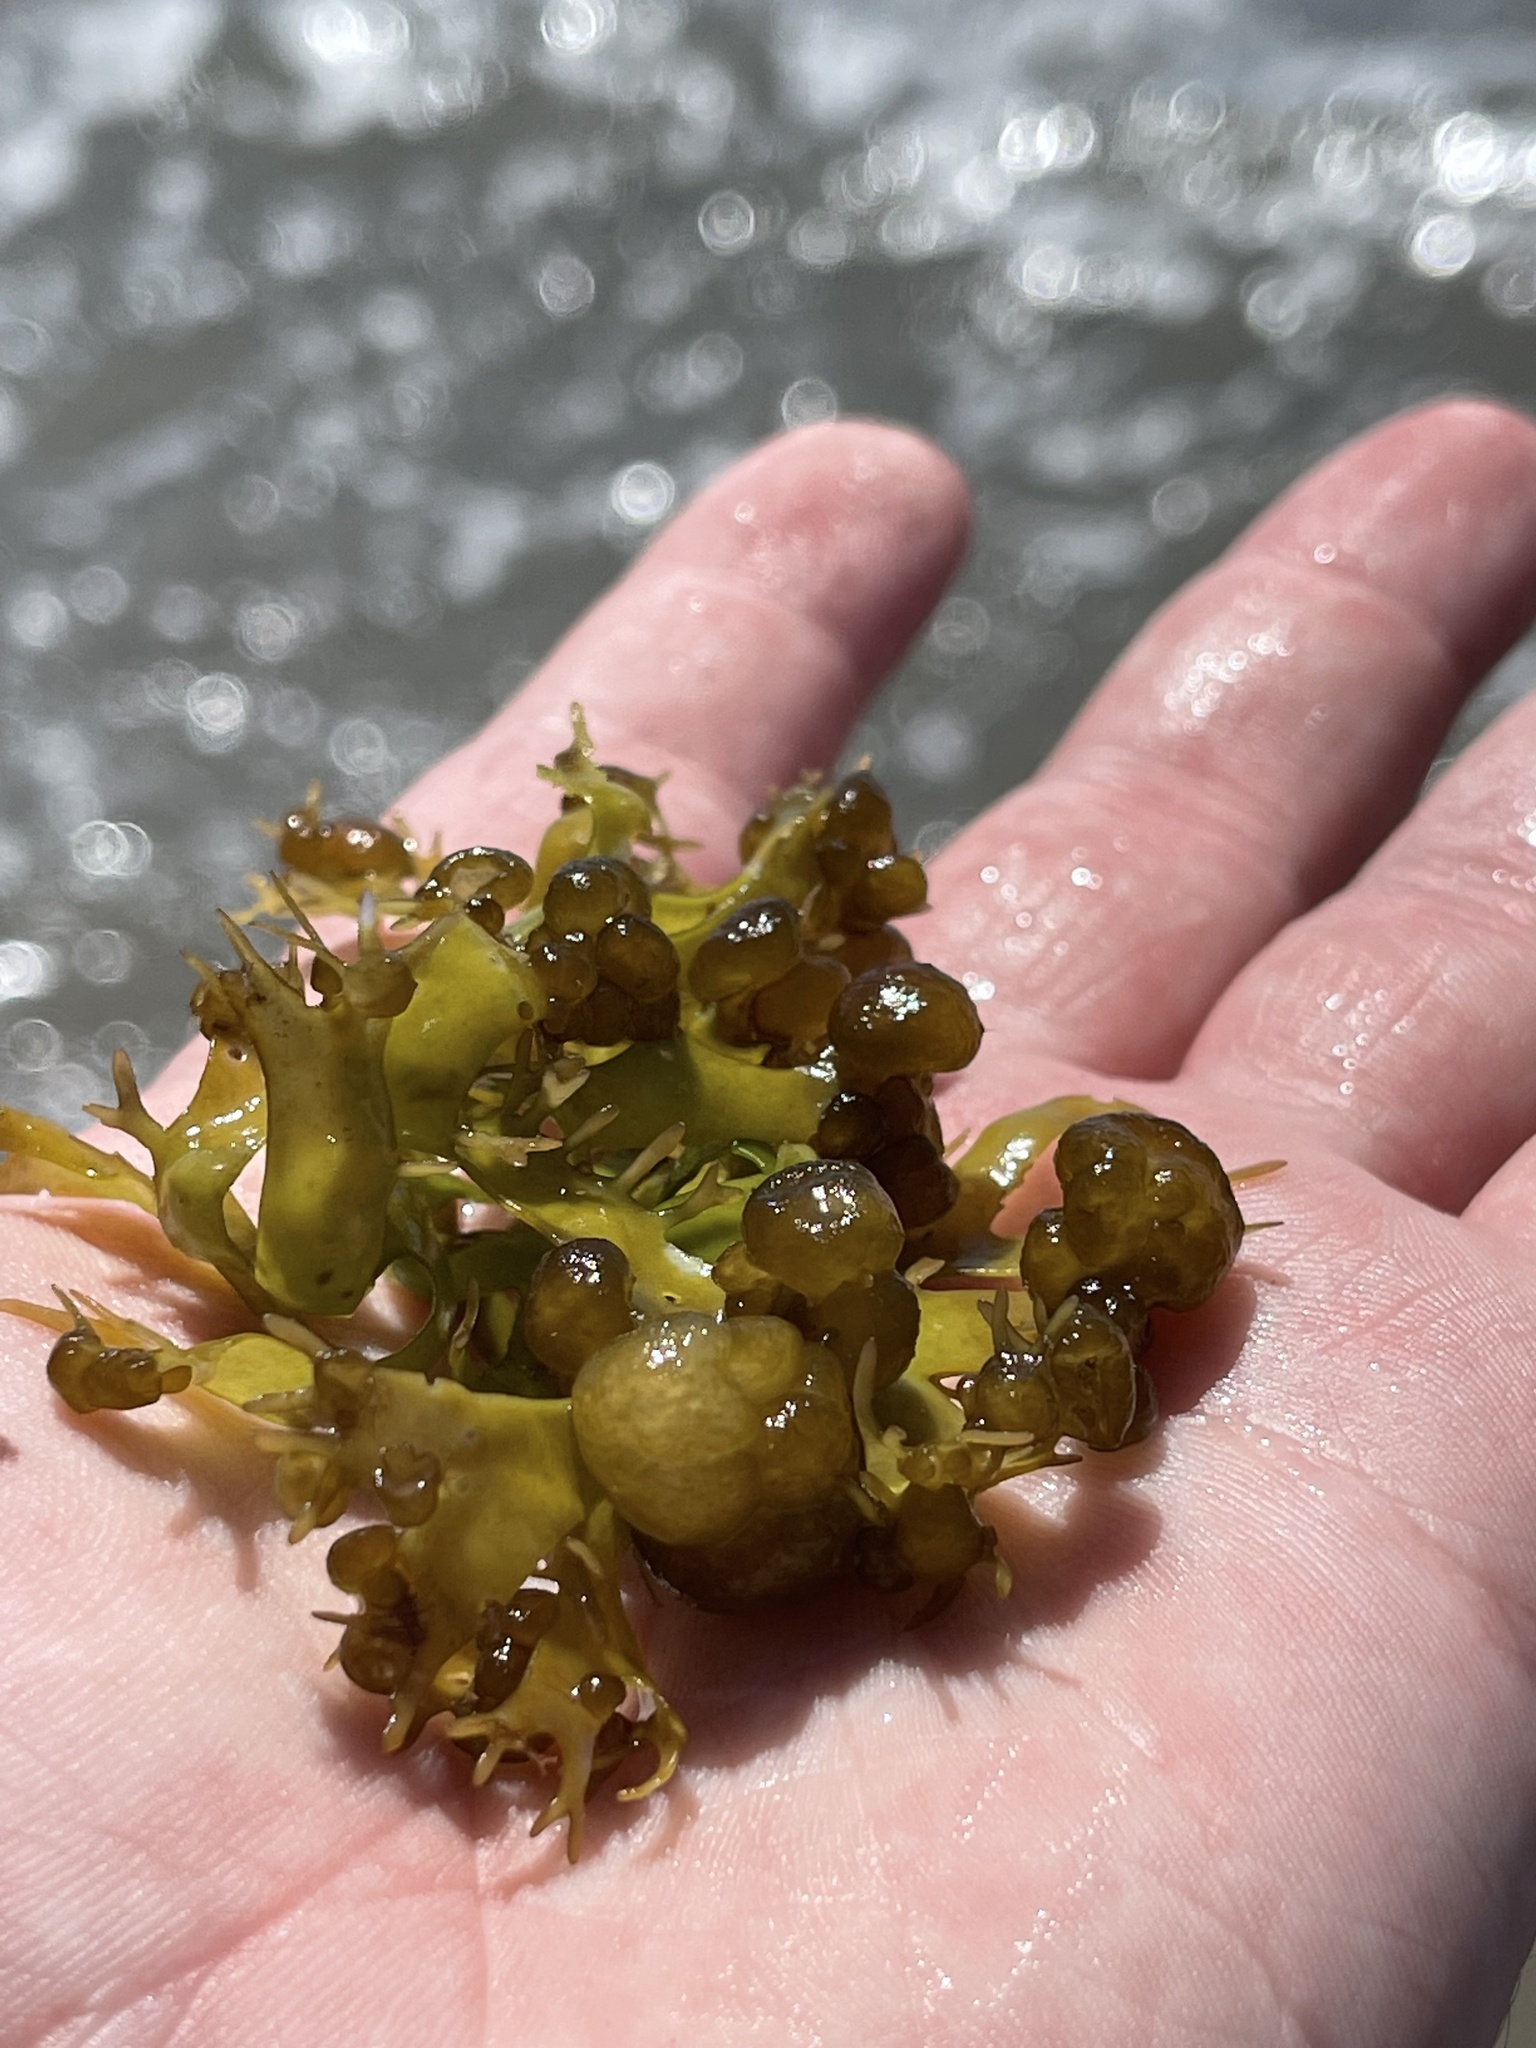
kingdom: Chromista
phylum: Ochrophyta
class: Phaeophyceae
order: Scytosiphonales
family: Scytosiphonaceae
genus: Colpomenia
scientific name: Colpomenia peregrina
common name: Oyster thief
